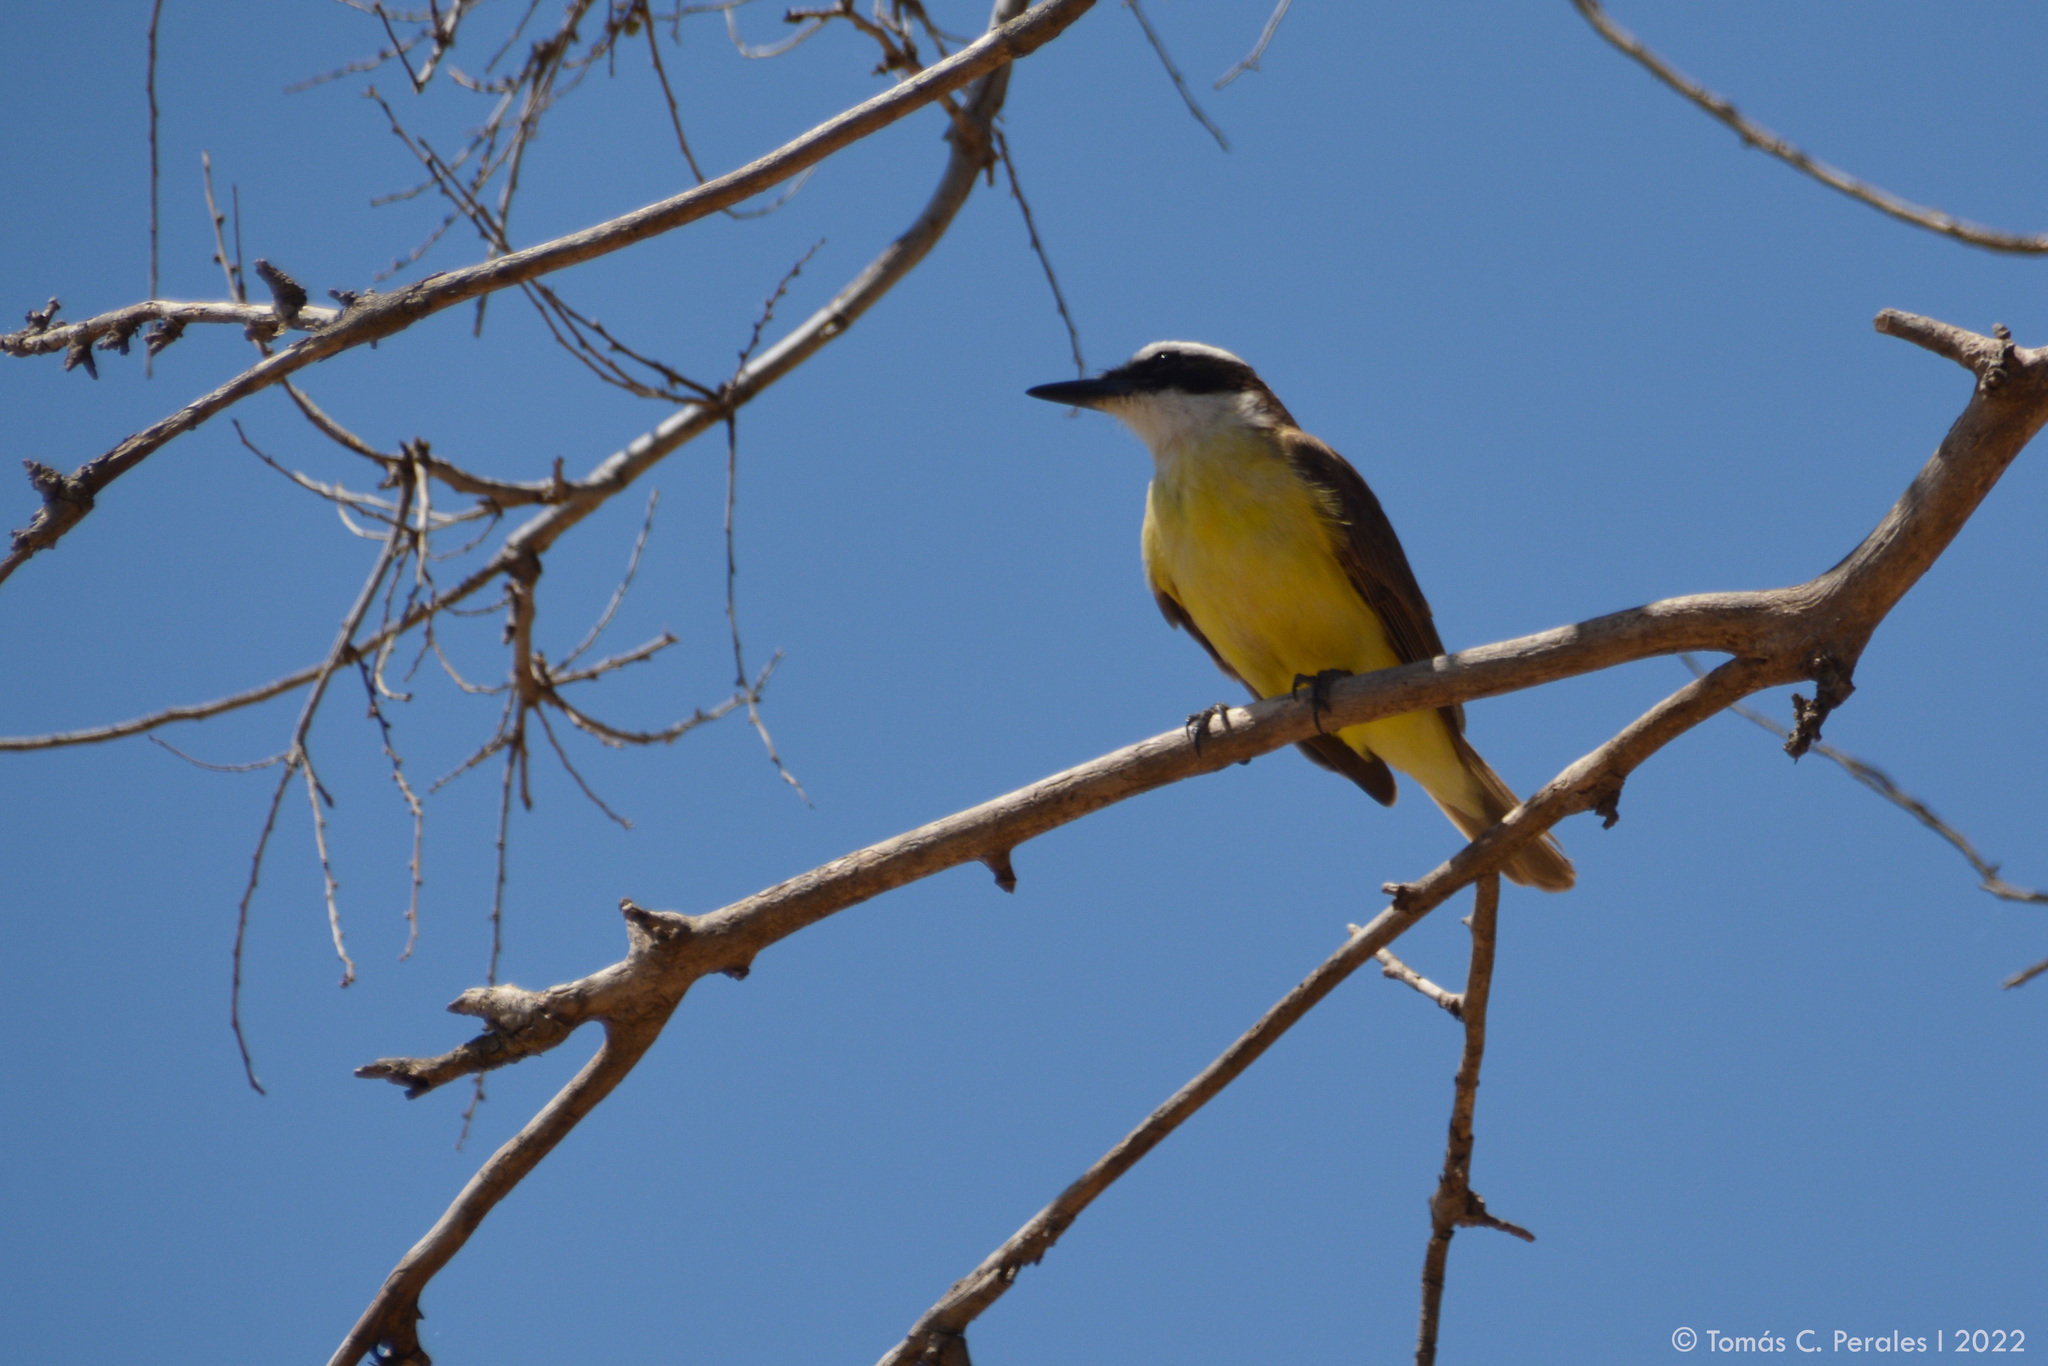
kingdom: Animalia
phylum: Chordata
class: Aves
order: Passeriformes
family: Tyrannidae
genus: Pitangus
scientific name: Pitangus sulphuratus
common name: Great kiskadee
